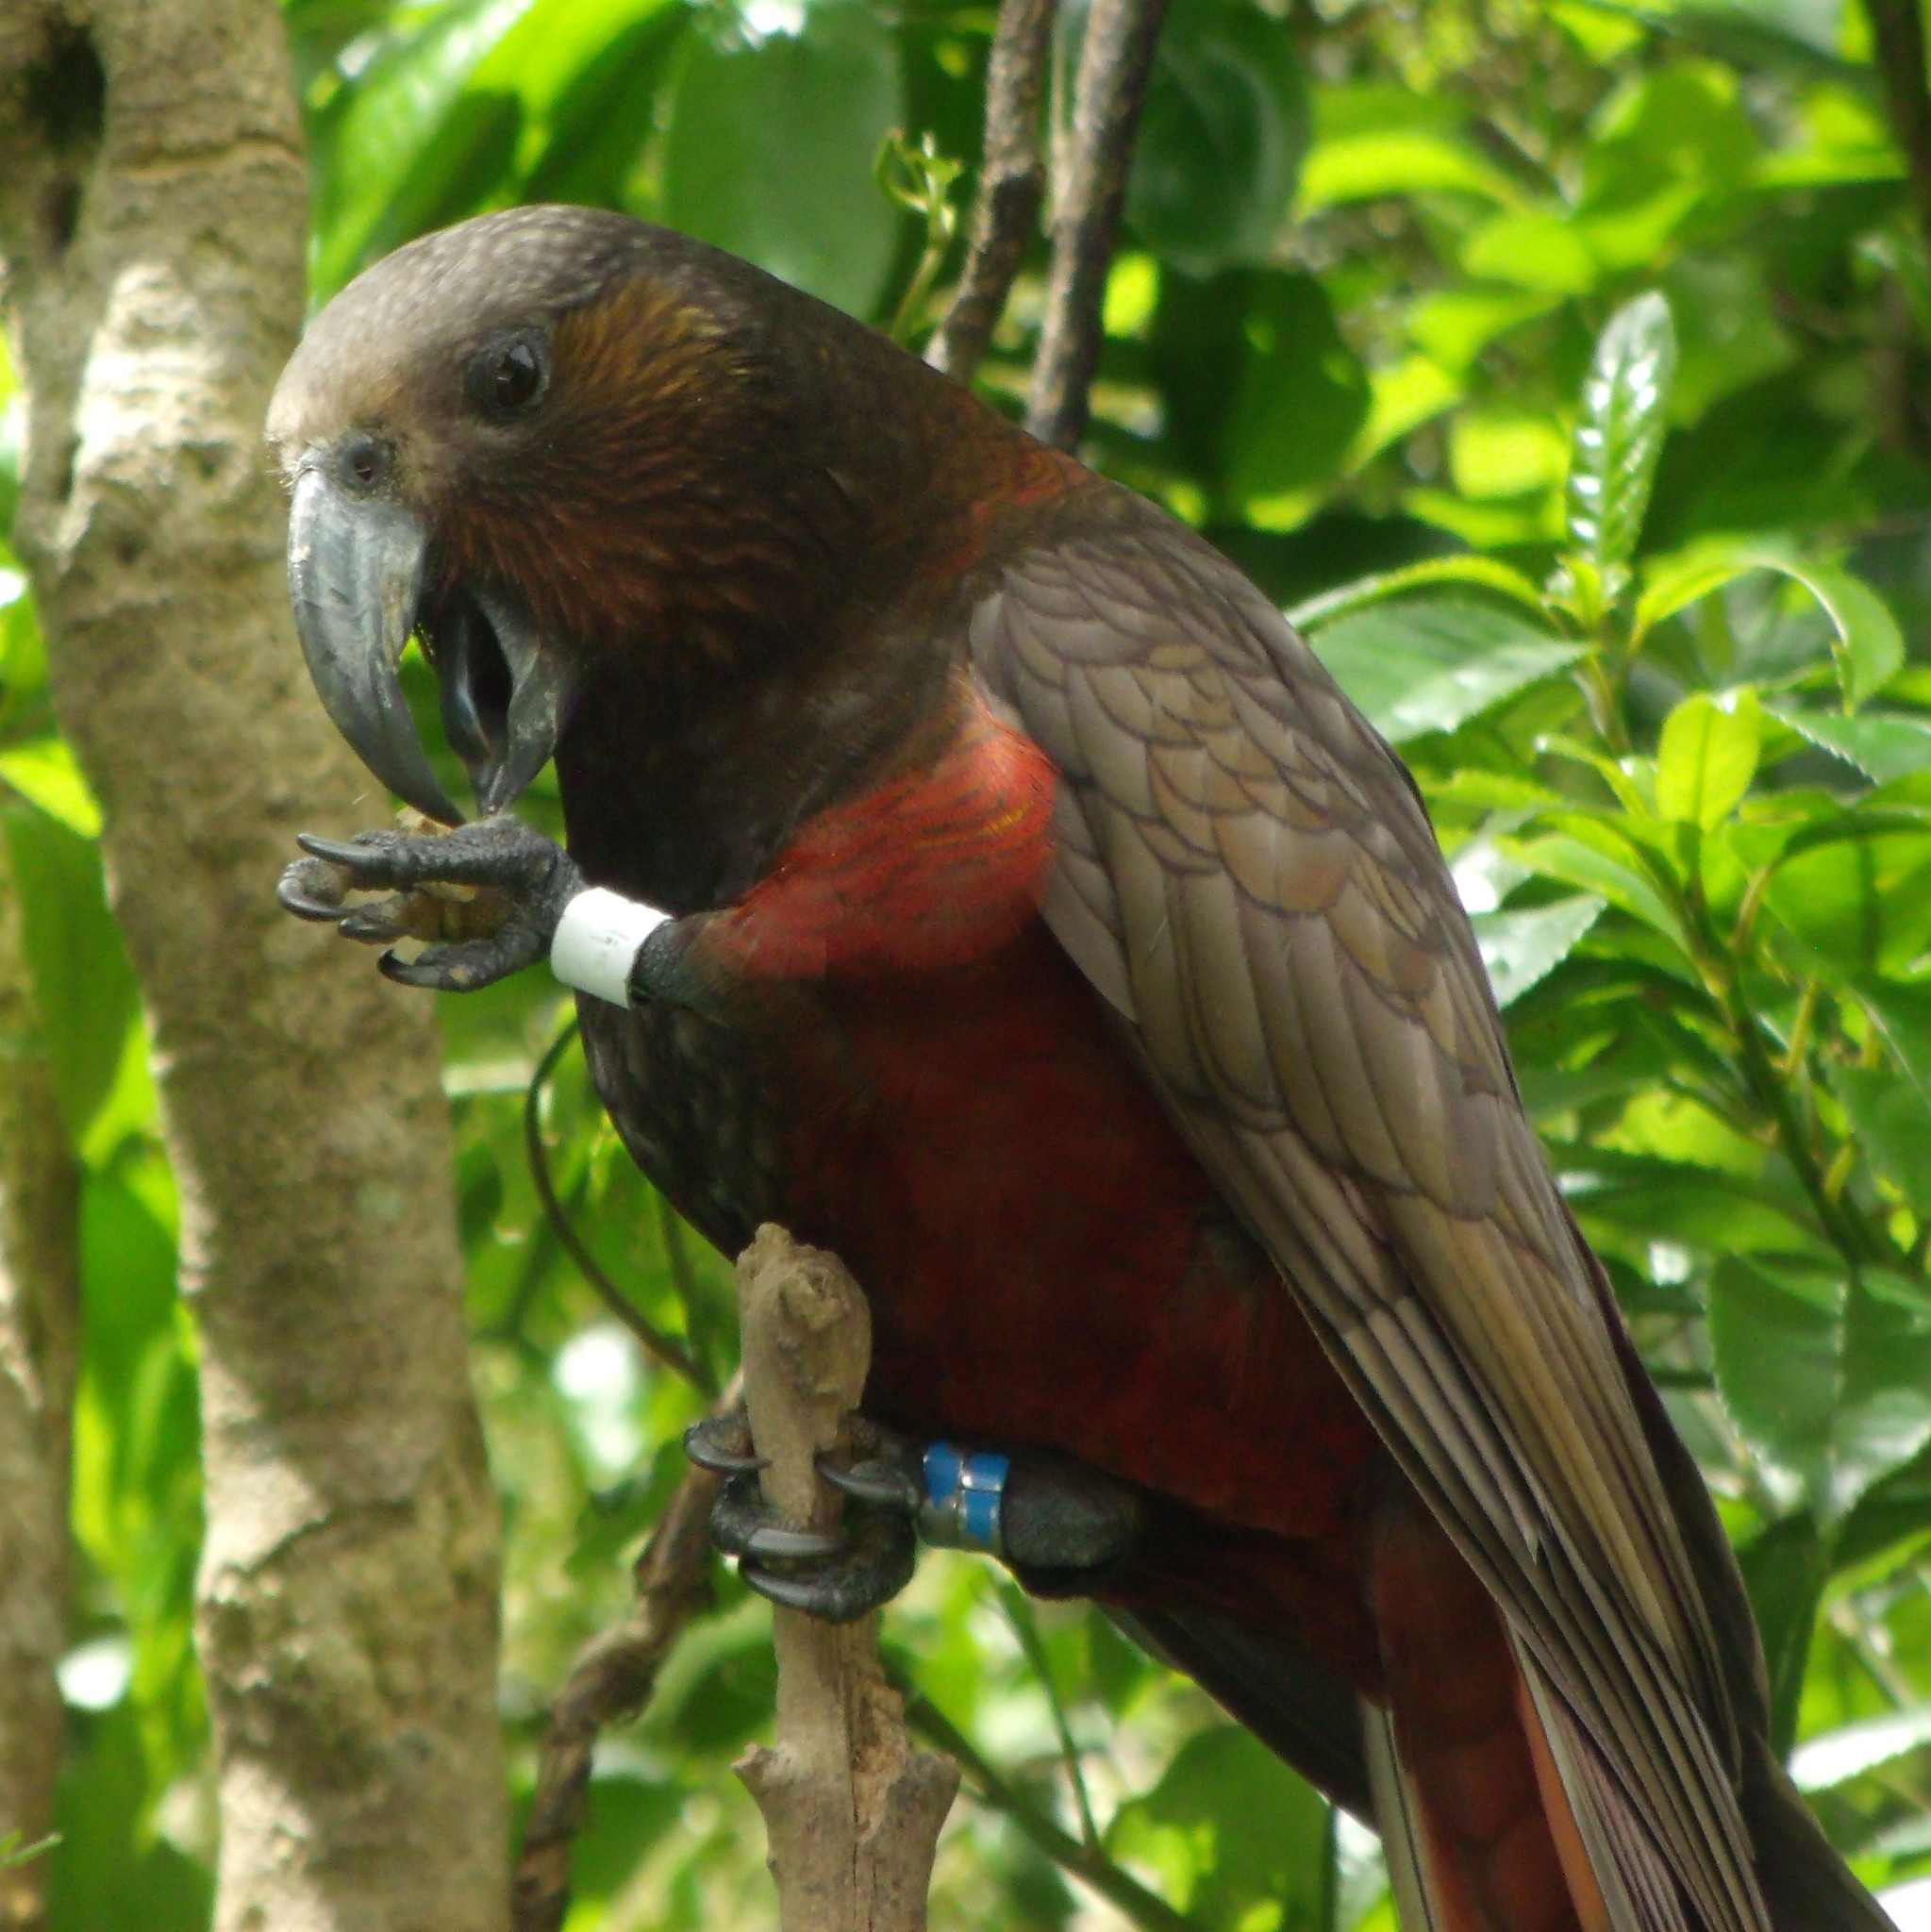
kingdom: Animalia
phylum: Chordata
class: Aves
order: Psittaciformes
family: Psittacidae
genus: Nestor
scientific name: Nestor meridionalis
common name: New zealand kaka
